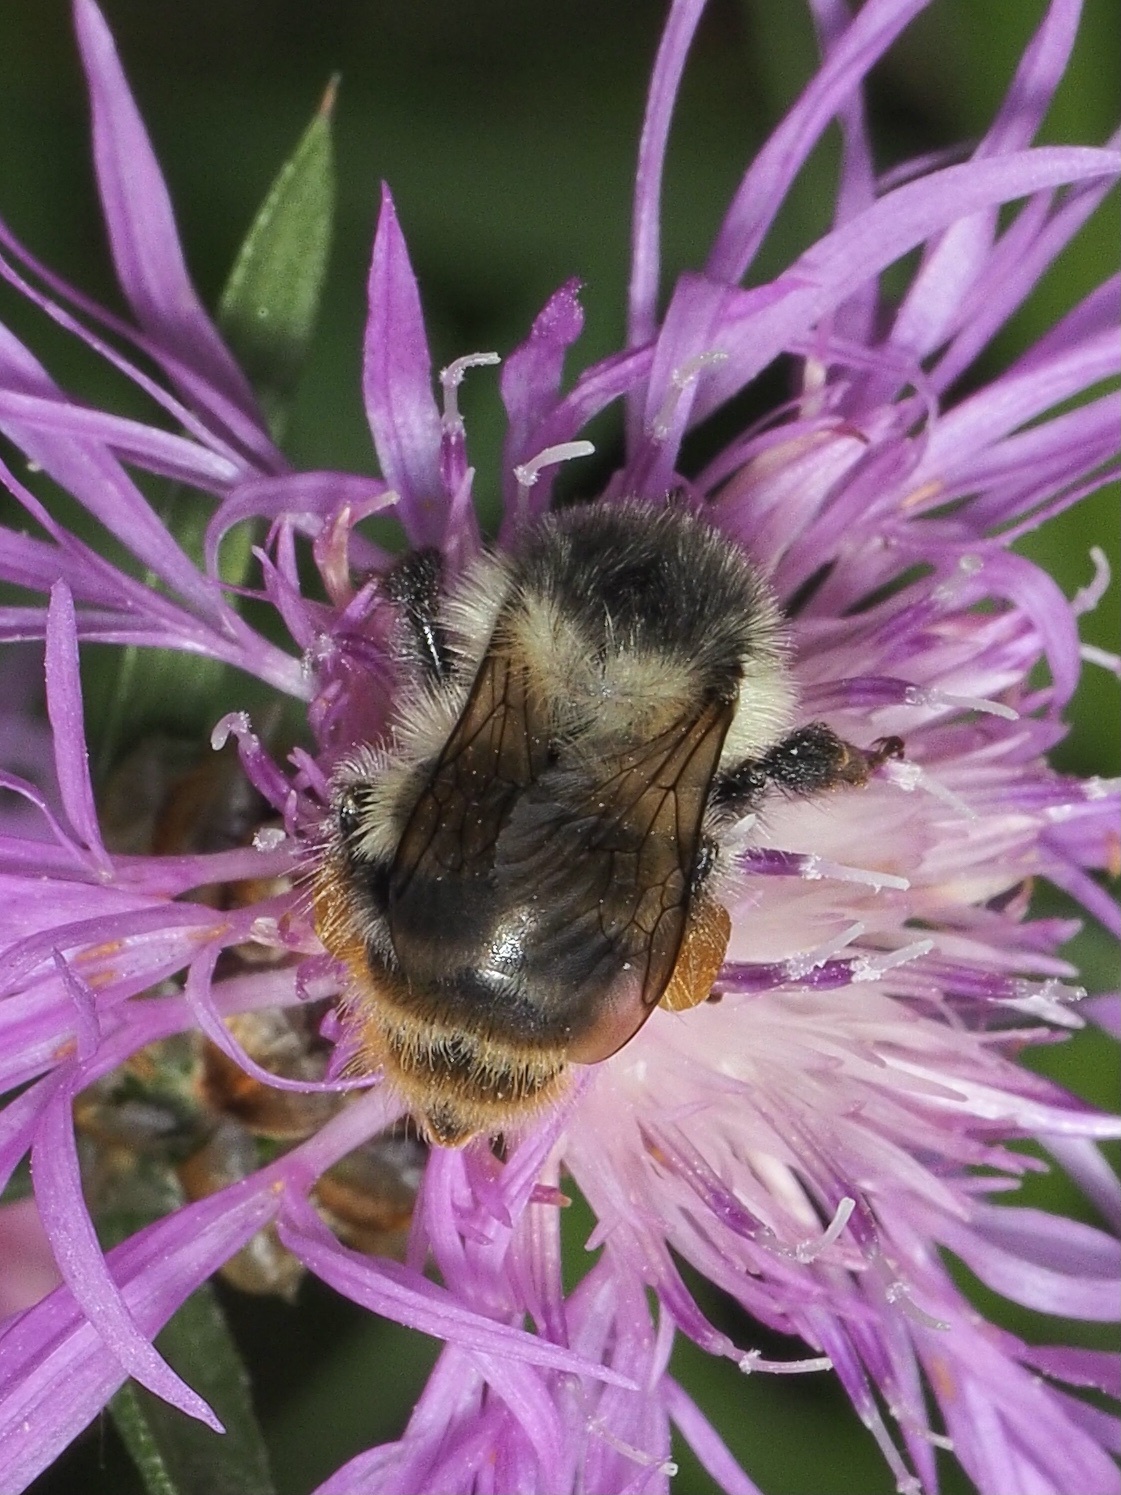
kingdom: Animalia
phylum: Arthropoda
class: Insecta
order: Hymenoptera
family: Apidae
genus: Bombus
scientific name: Bombus sylvarum
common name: Shrill carder bee
